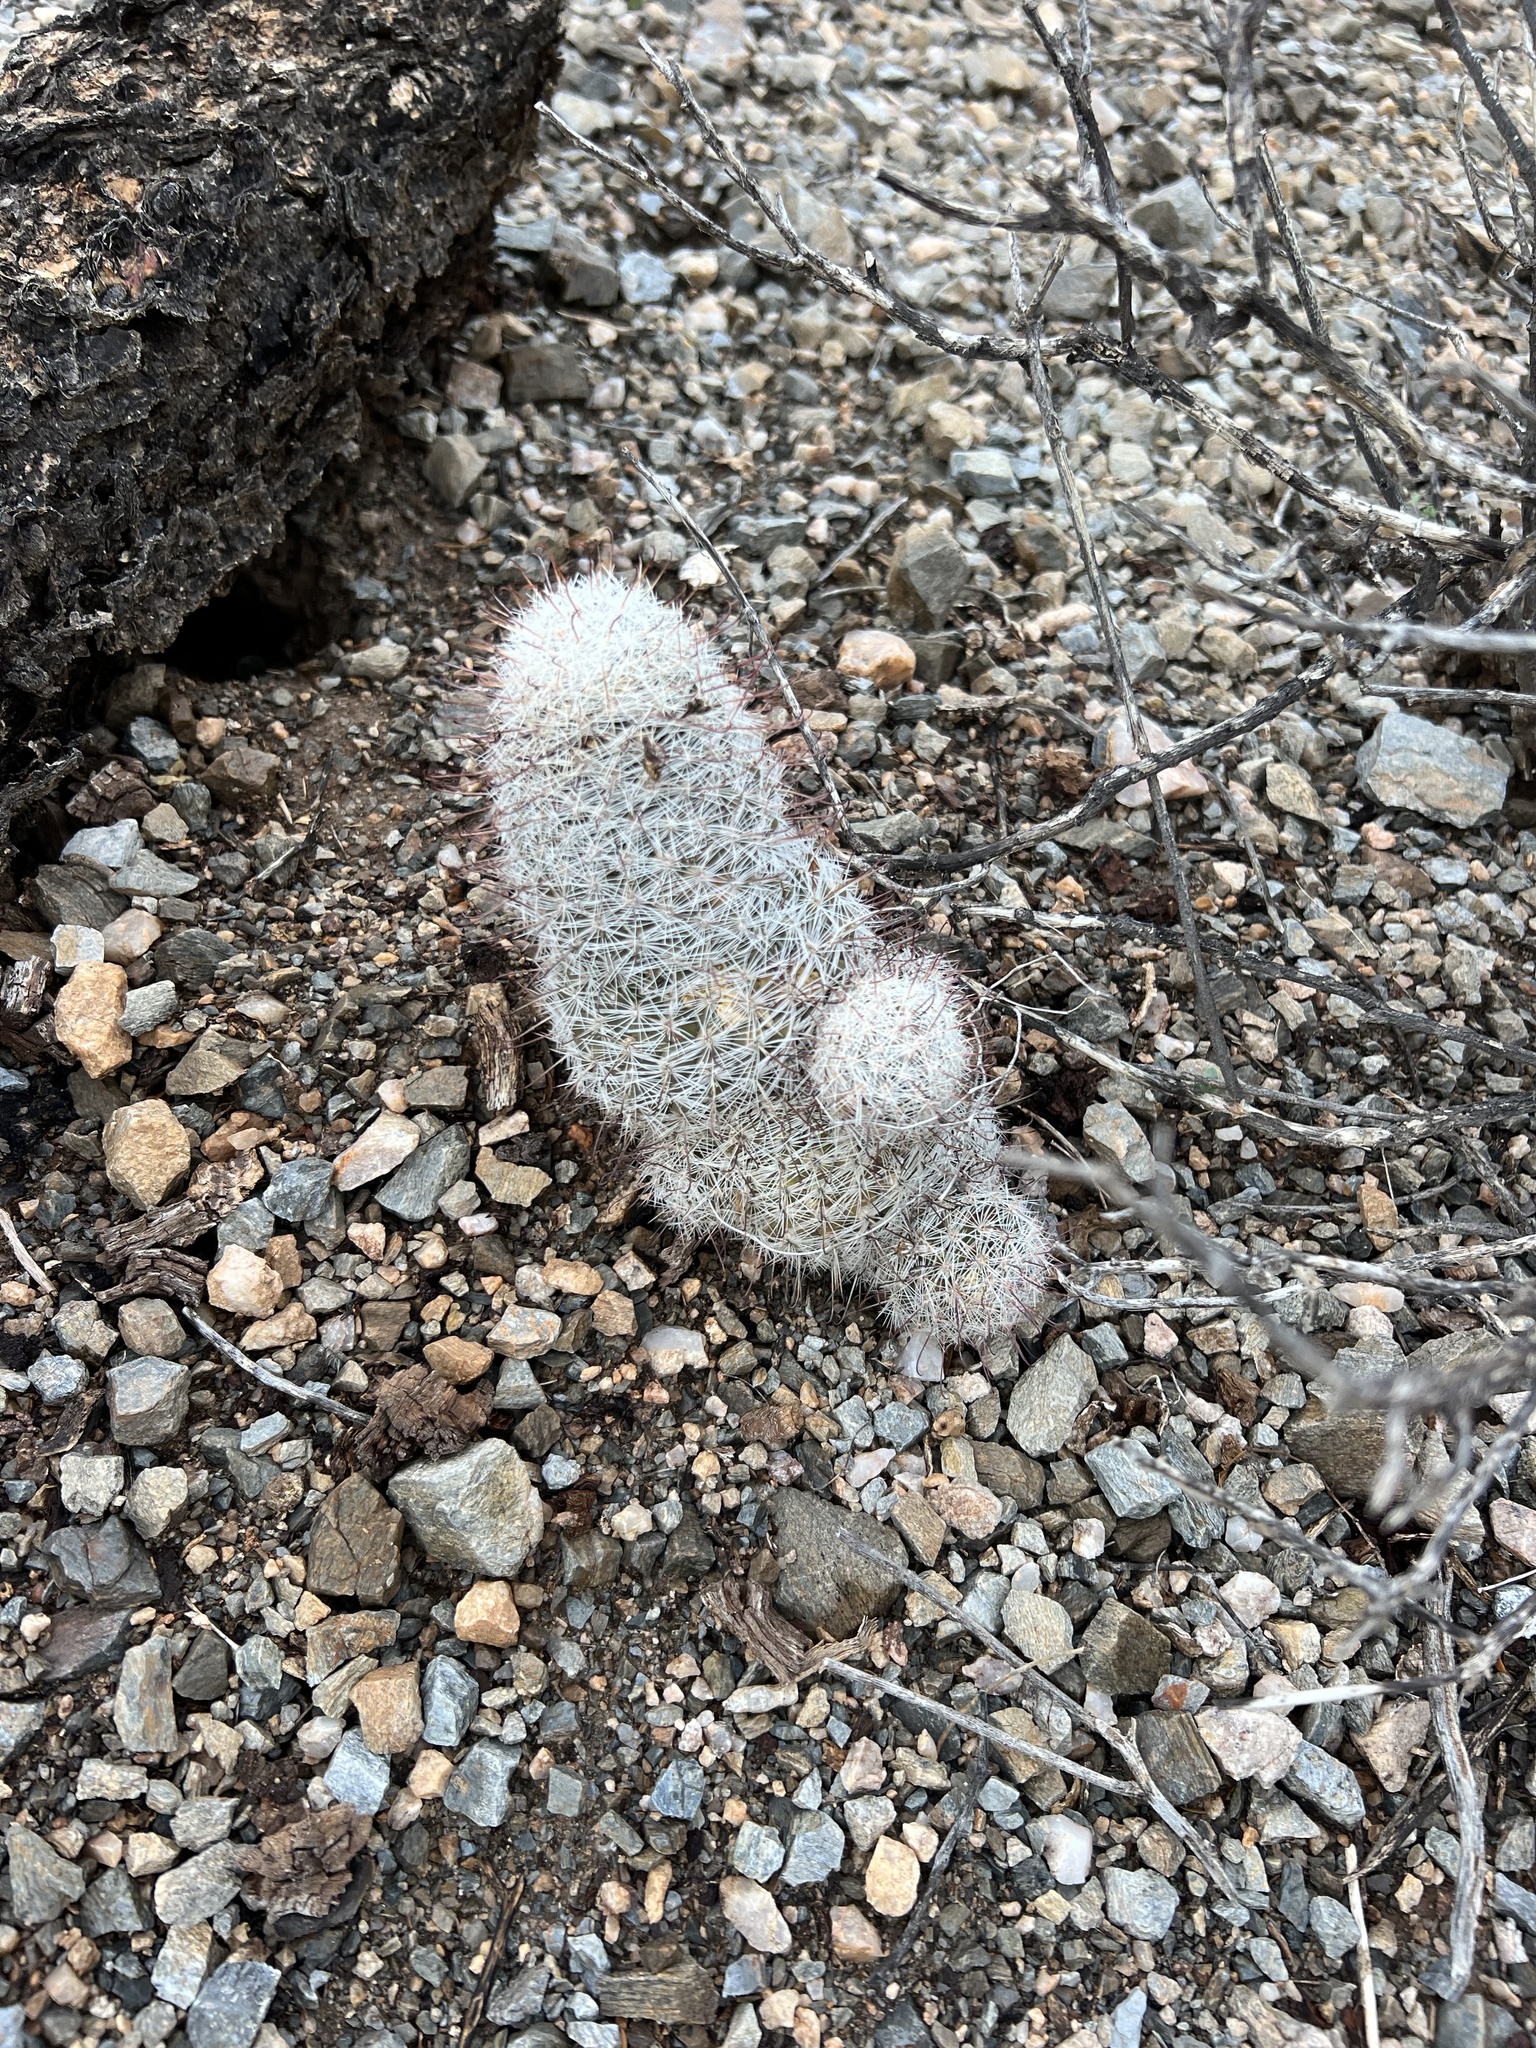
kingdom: Plantae
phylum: Tracheophyta
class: Magnoliopsida
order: Caryophyllales
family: Cactaceae
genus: Cochemiea
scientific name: Cochemiea grahamii
